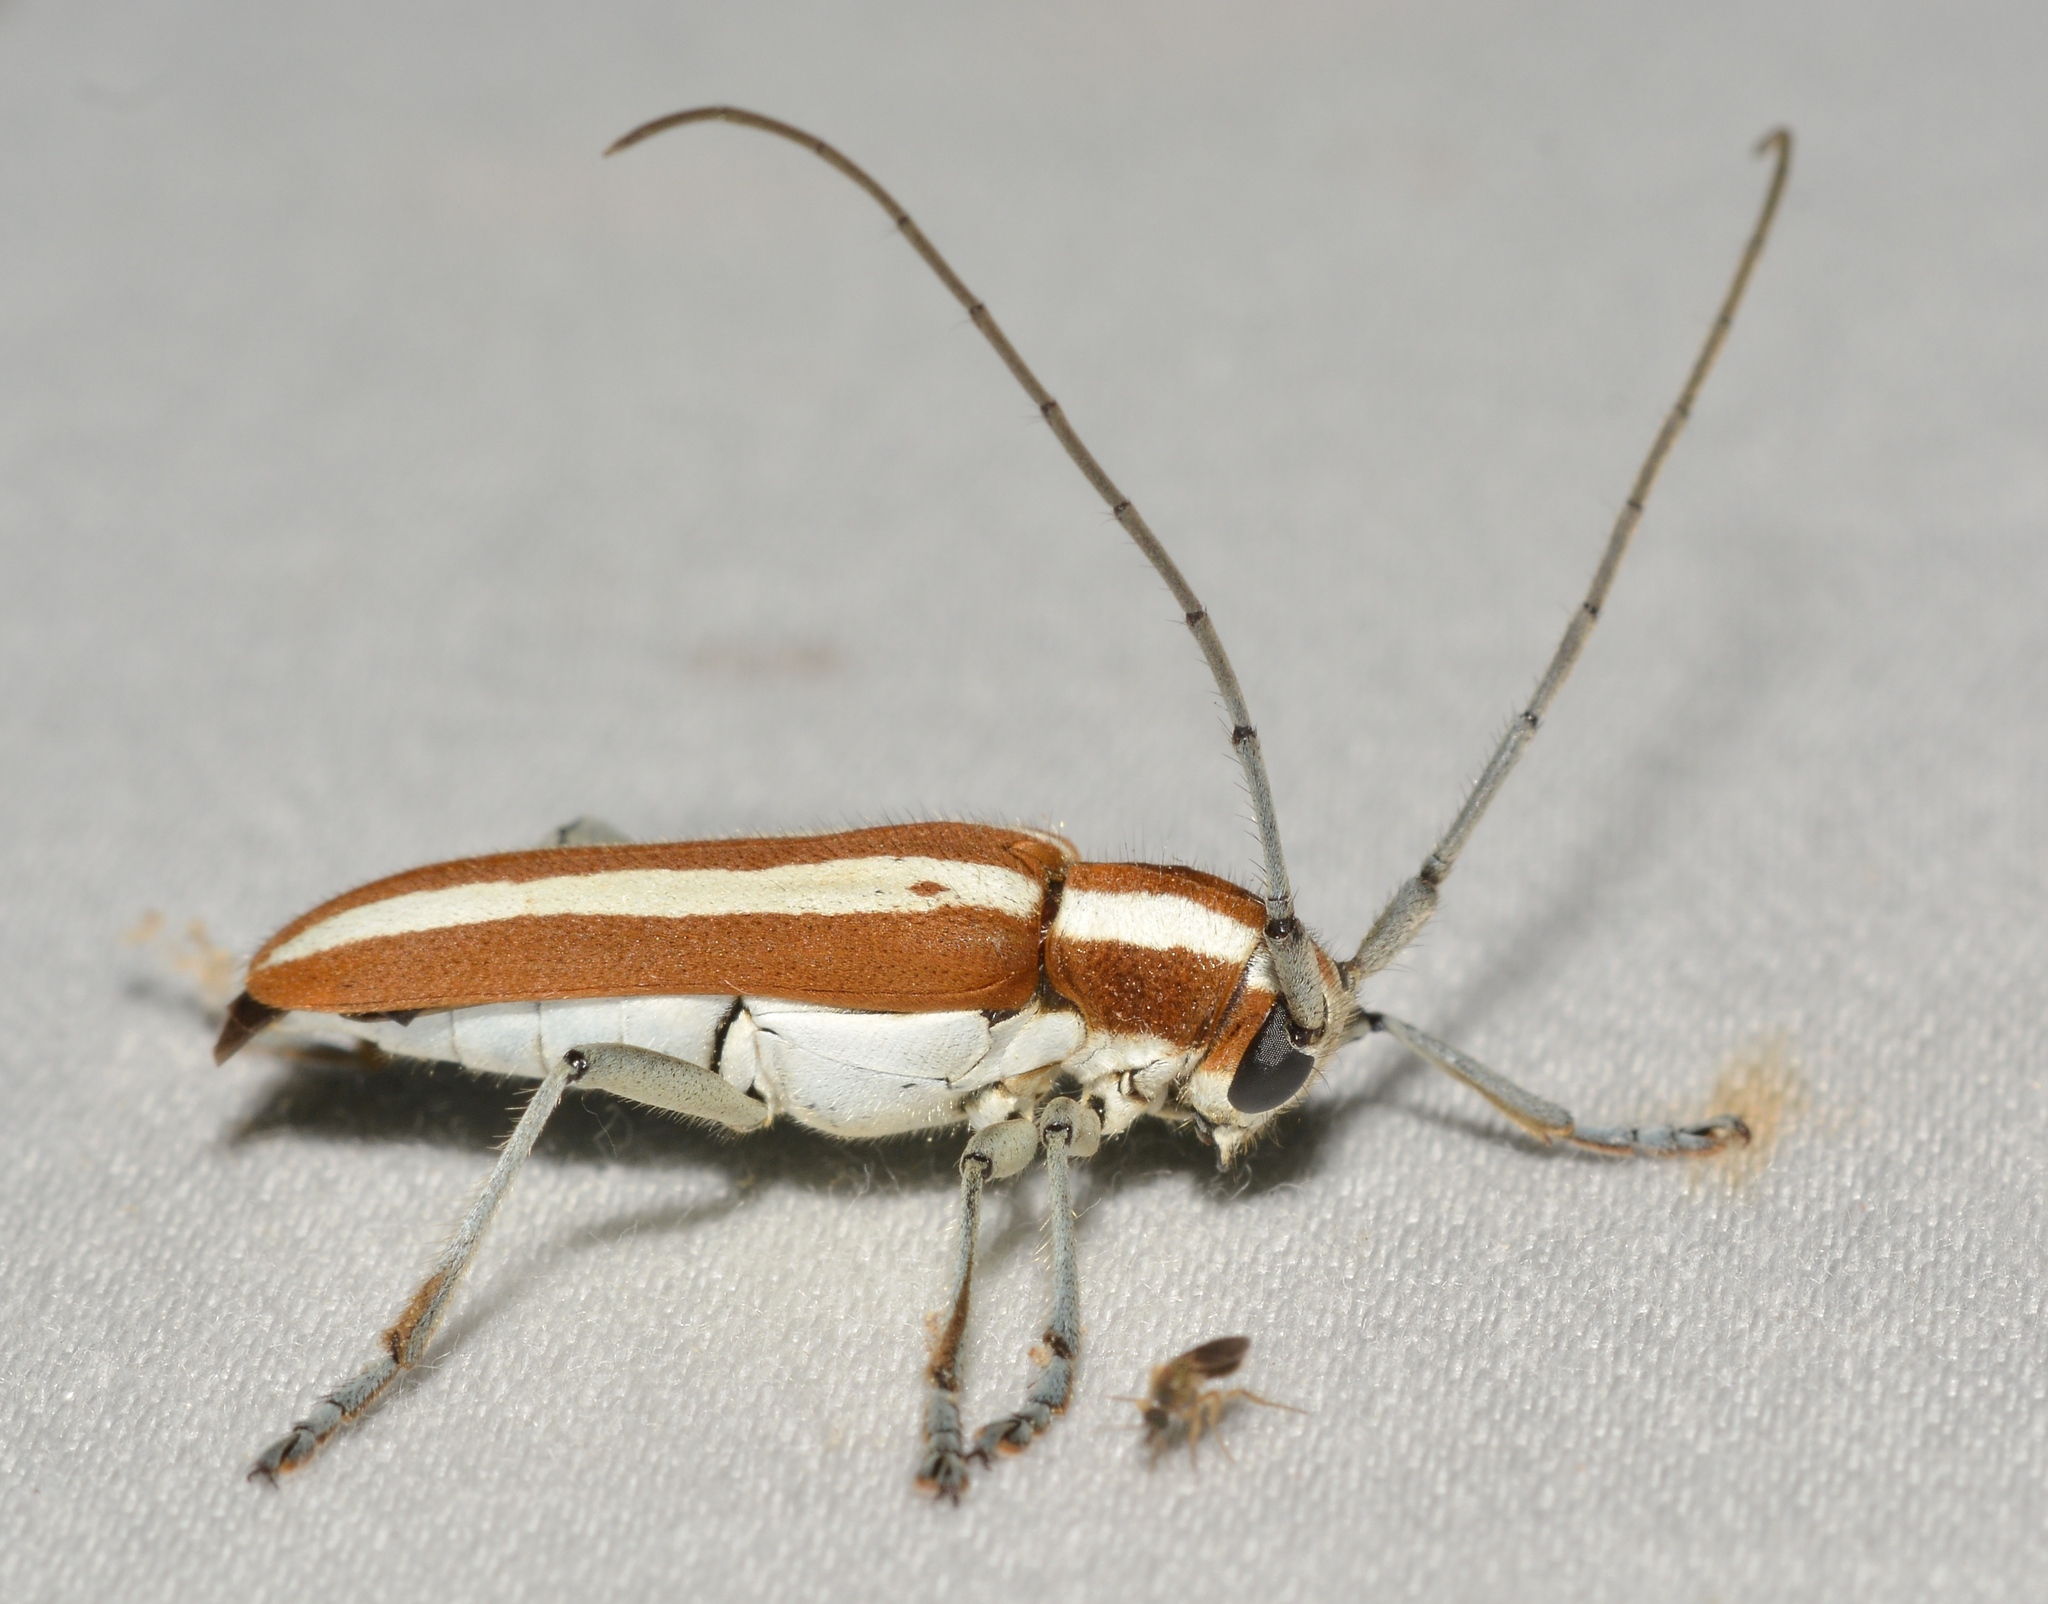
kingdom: Animalia
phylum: Arthropoda
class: Insecta
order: Coleoptera
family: Cerambycidae
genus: Saperda
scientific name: Saperda candida
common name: Round-headed borer
